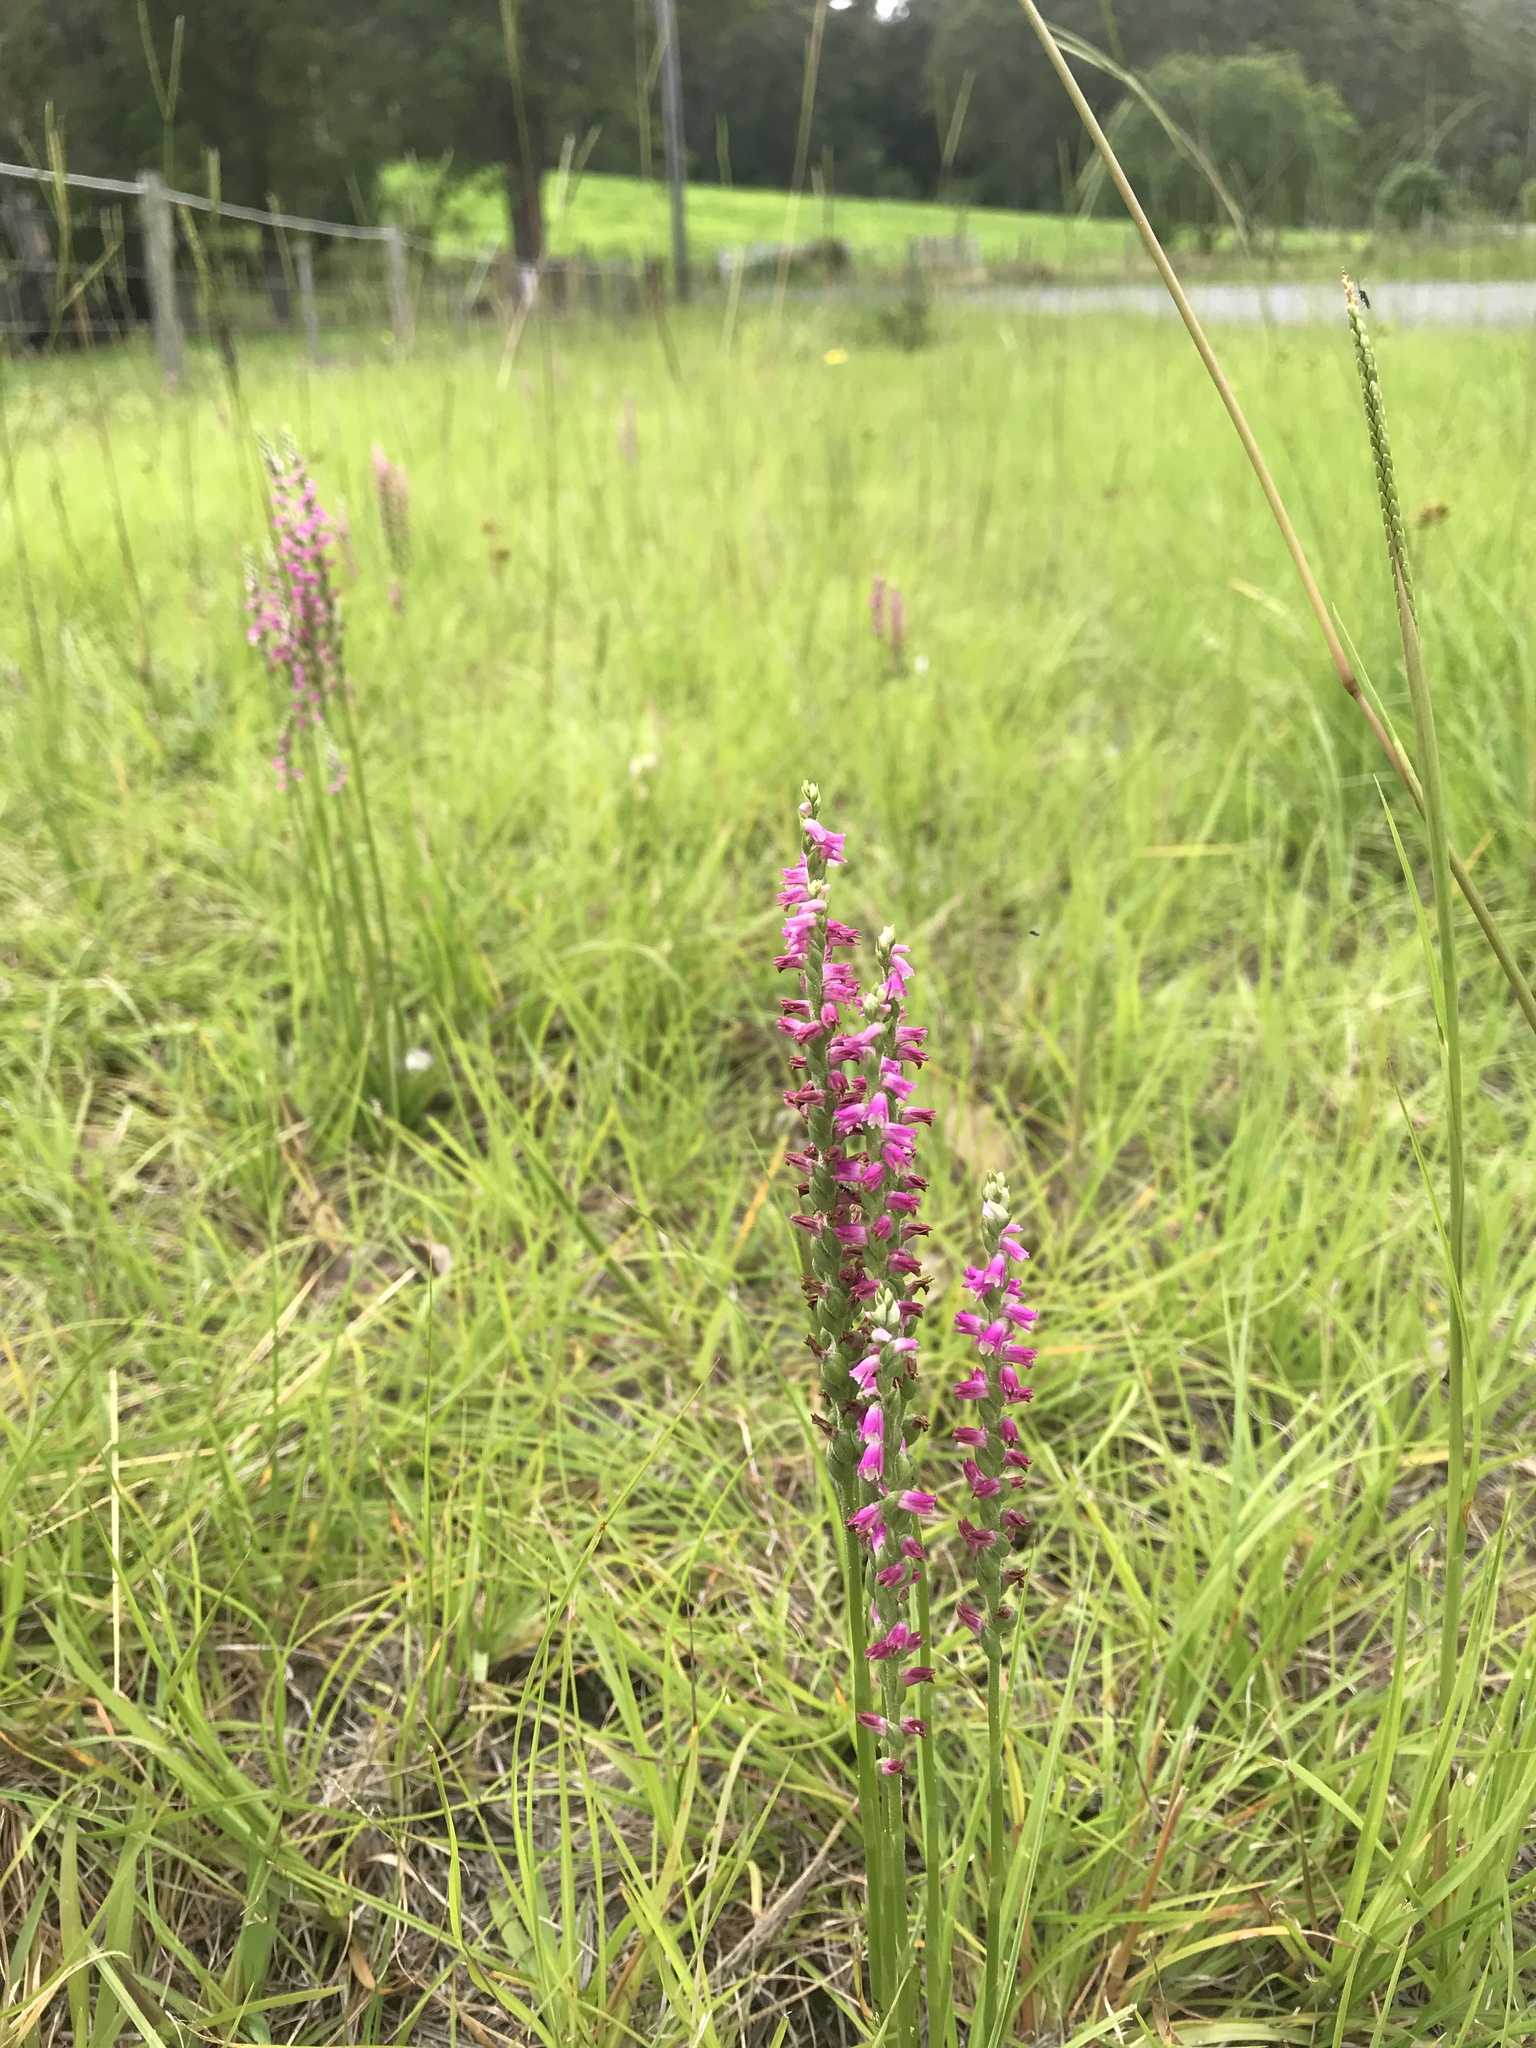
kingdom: Plantae
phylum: Tracheophyta
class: Liliopsida
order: Asparagales
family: Orchidaceae
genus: Spiranthes
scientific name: Spiranthes australis
